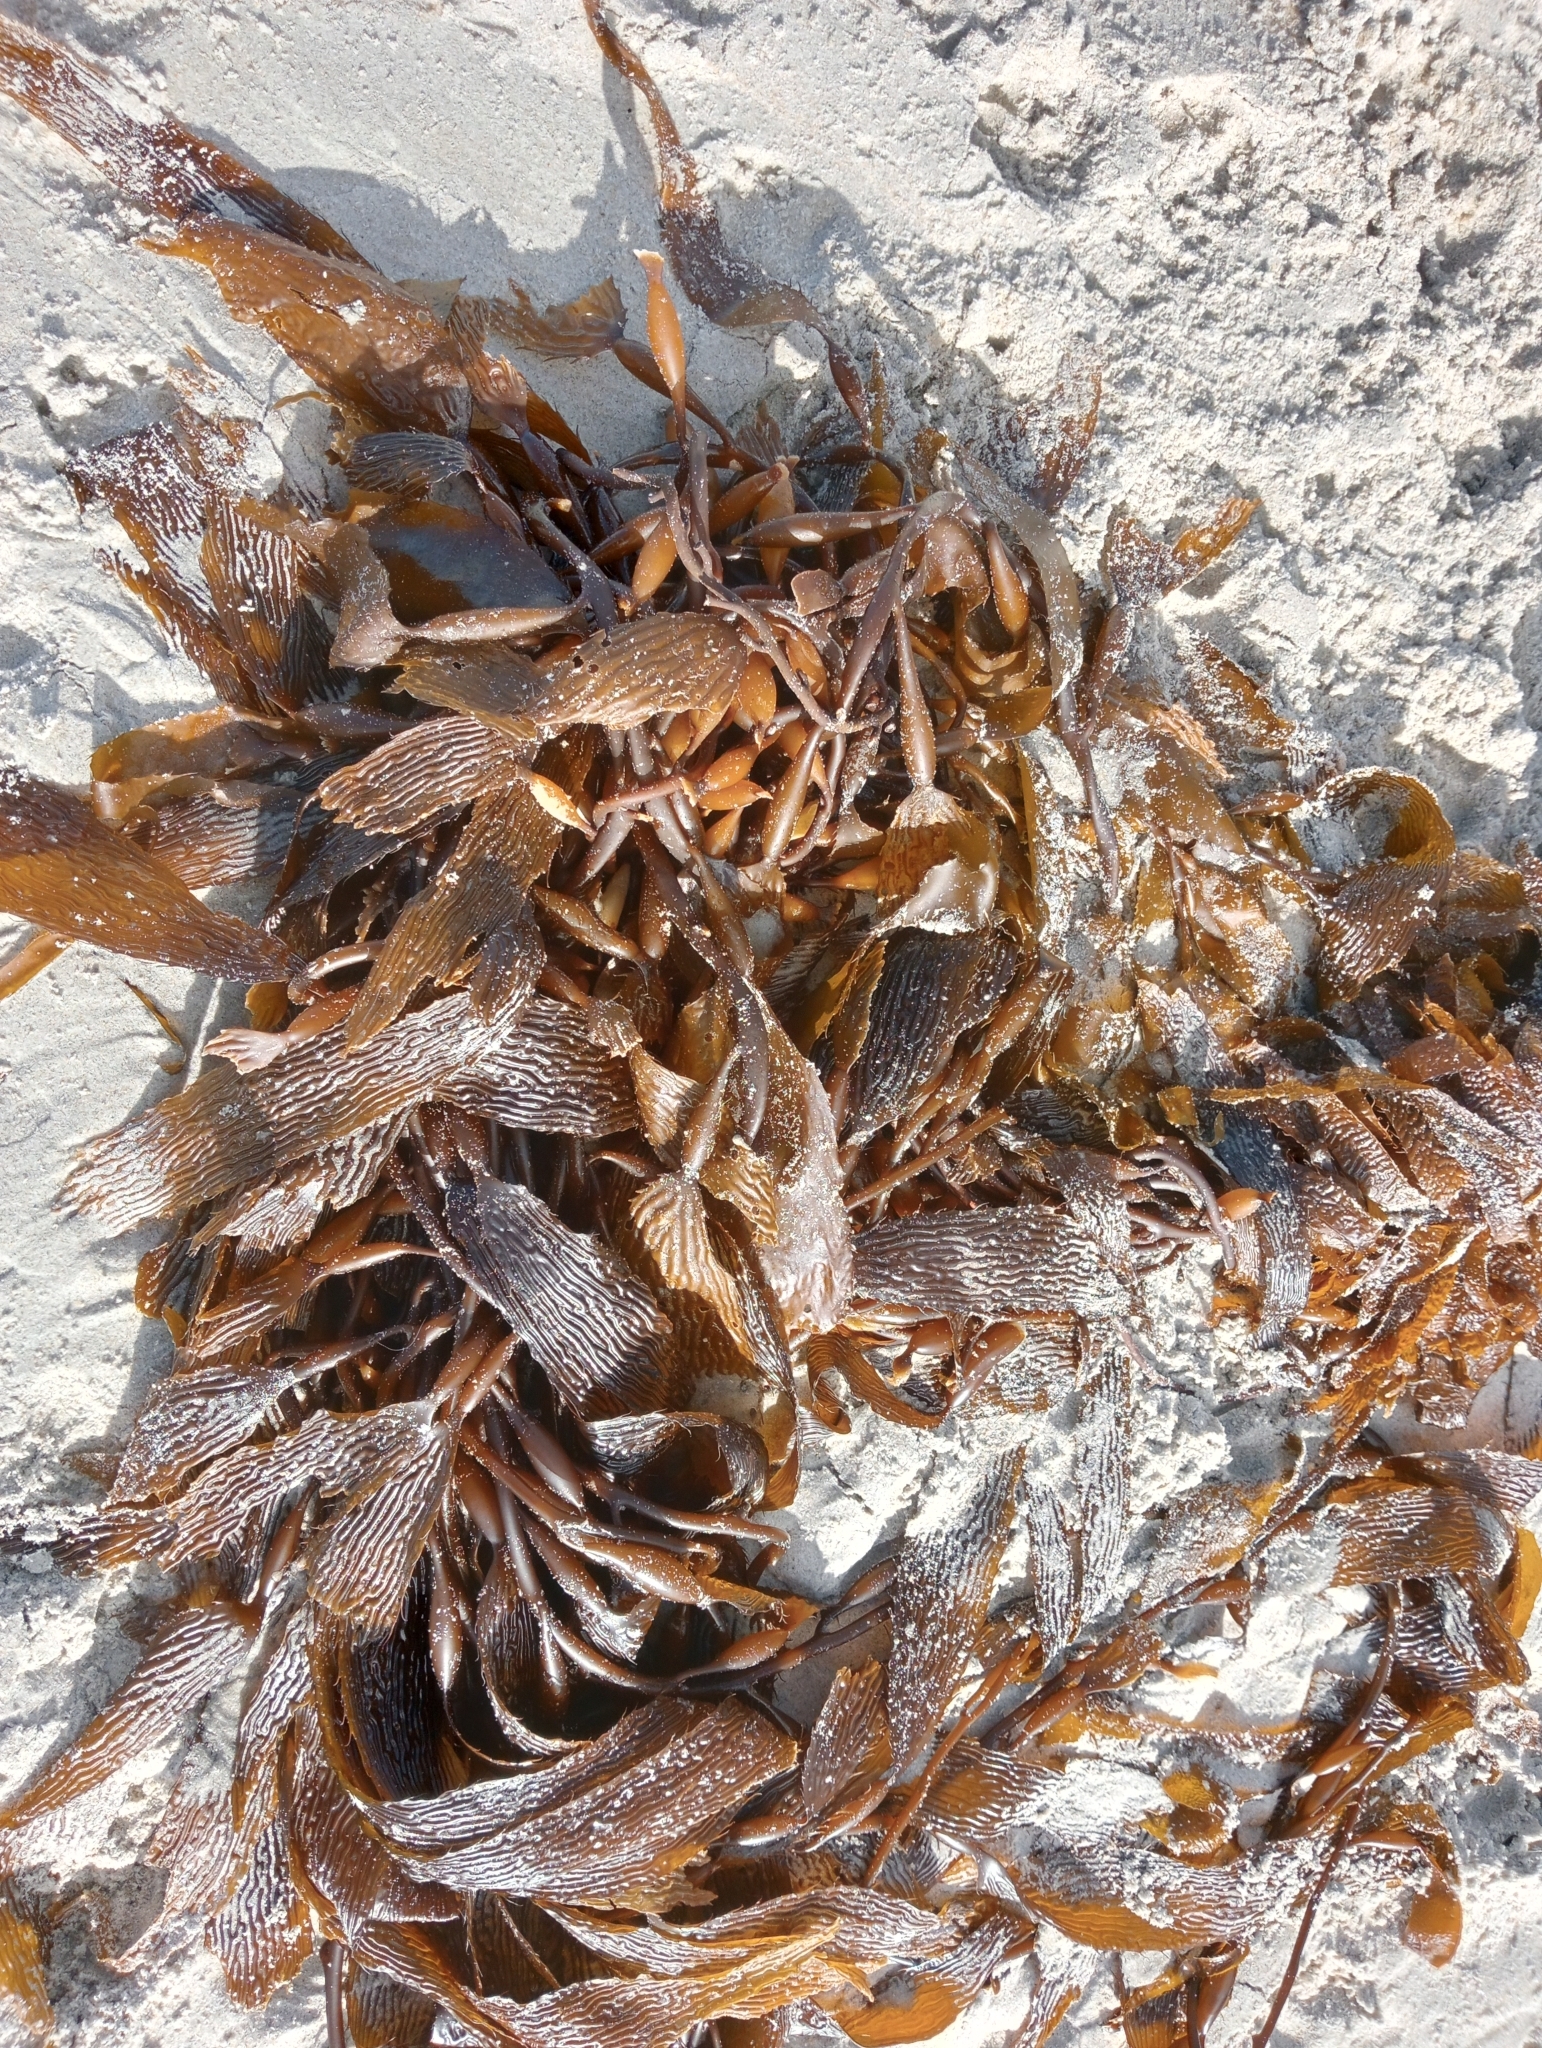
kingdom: Chromista
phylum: Ochrophyta
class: Phaeophyceae
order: Laminariales
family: Laminariaceae
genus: Macrocystis
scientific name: Macrocystis pyrifera
